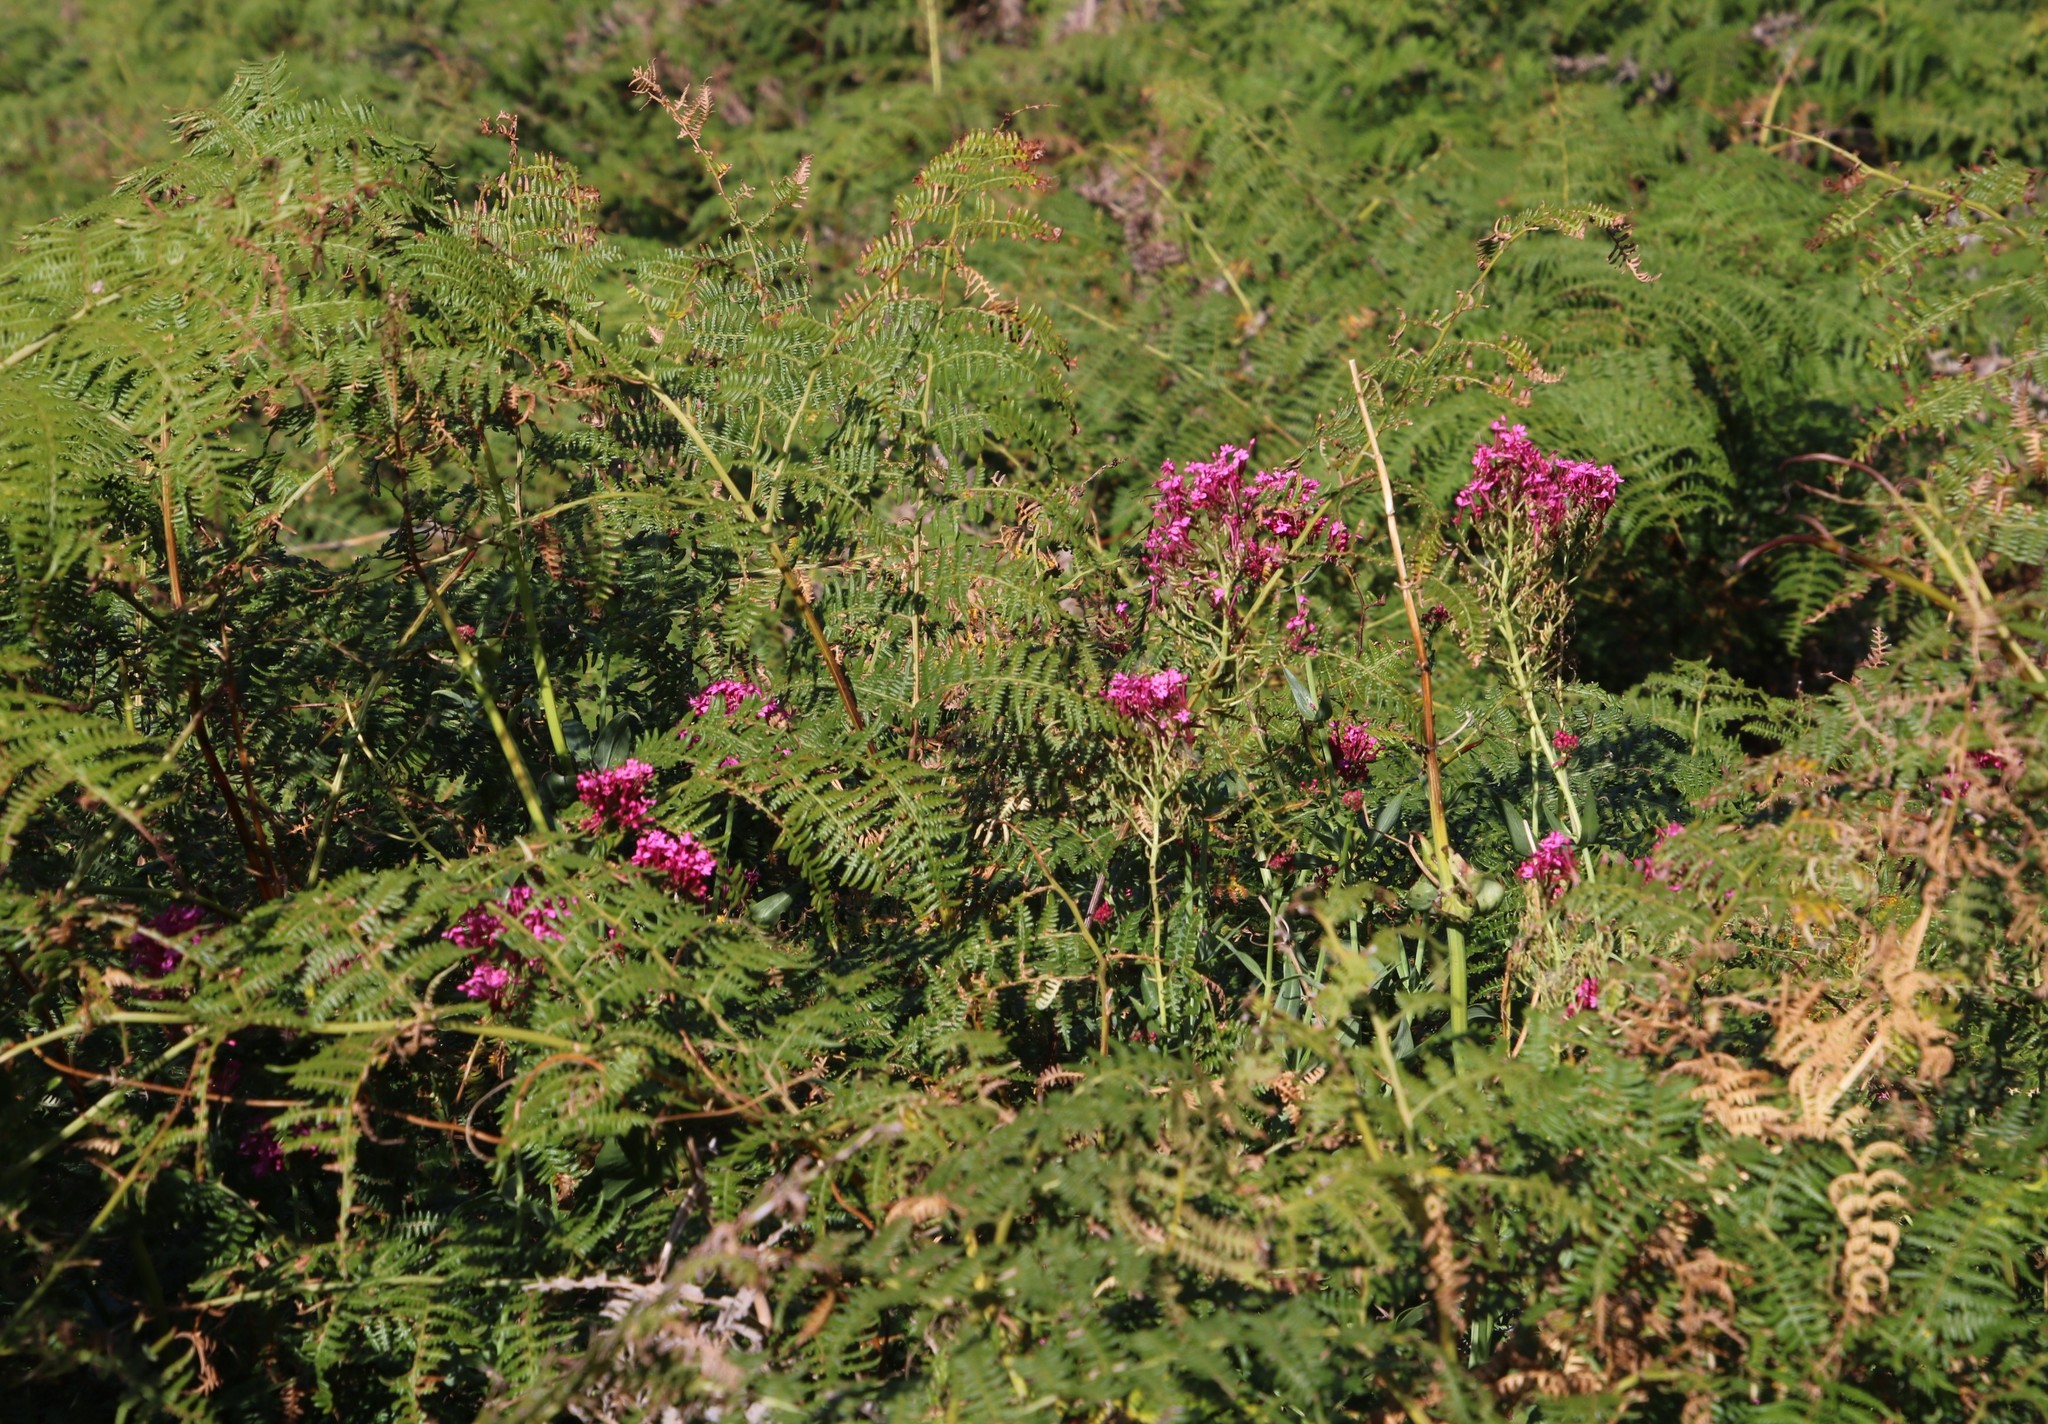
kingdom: Plantae
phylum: Tracheophyta
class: Magnoliopsida
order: Dipsacales
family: Caprifoliaceae
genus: Centranthus
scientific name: Centranthus ruber
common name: Red valerian
